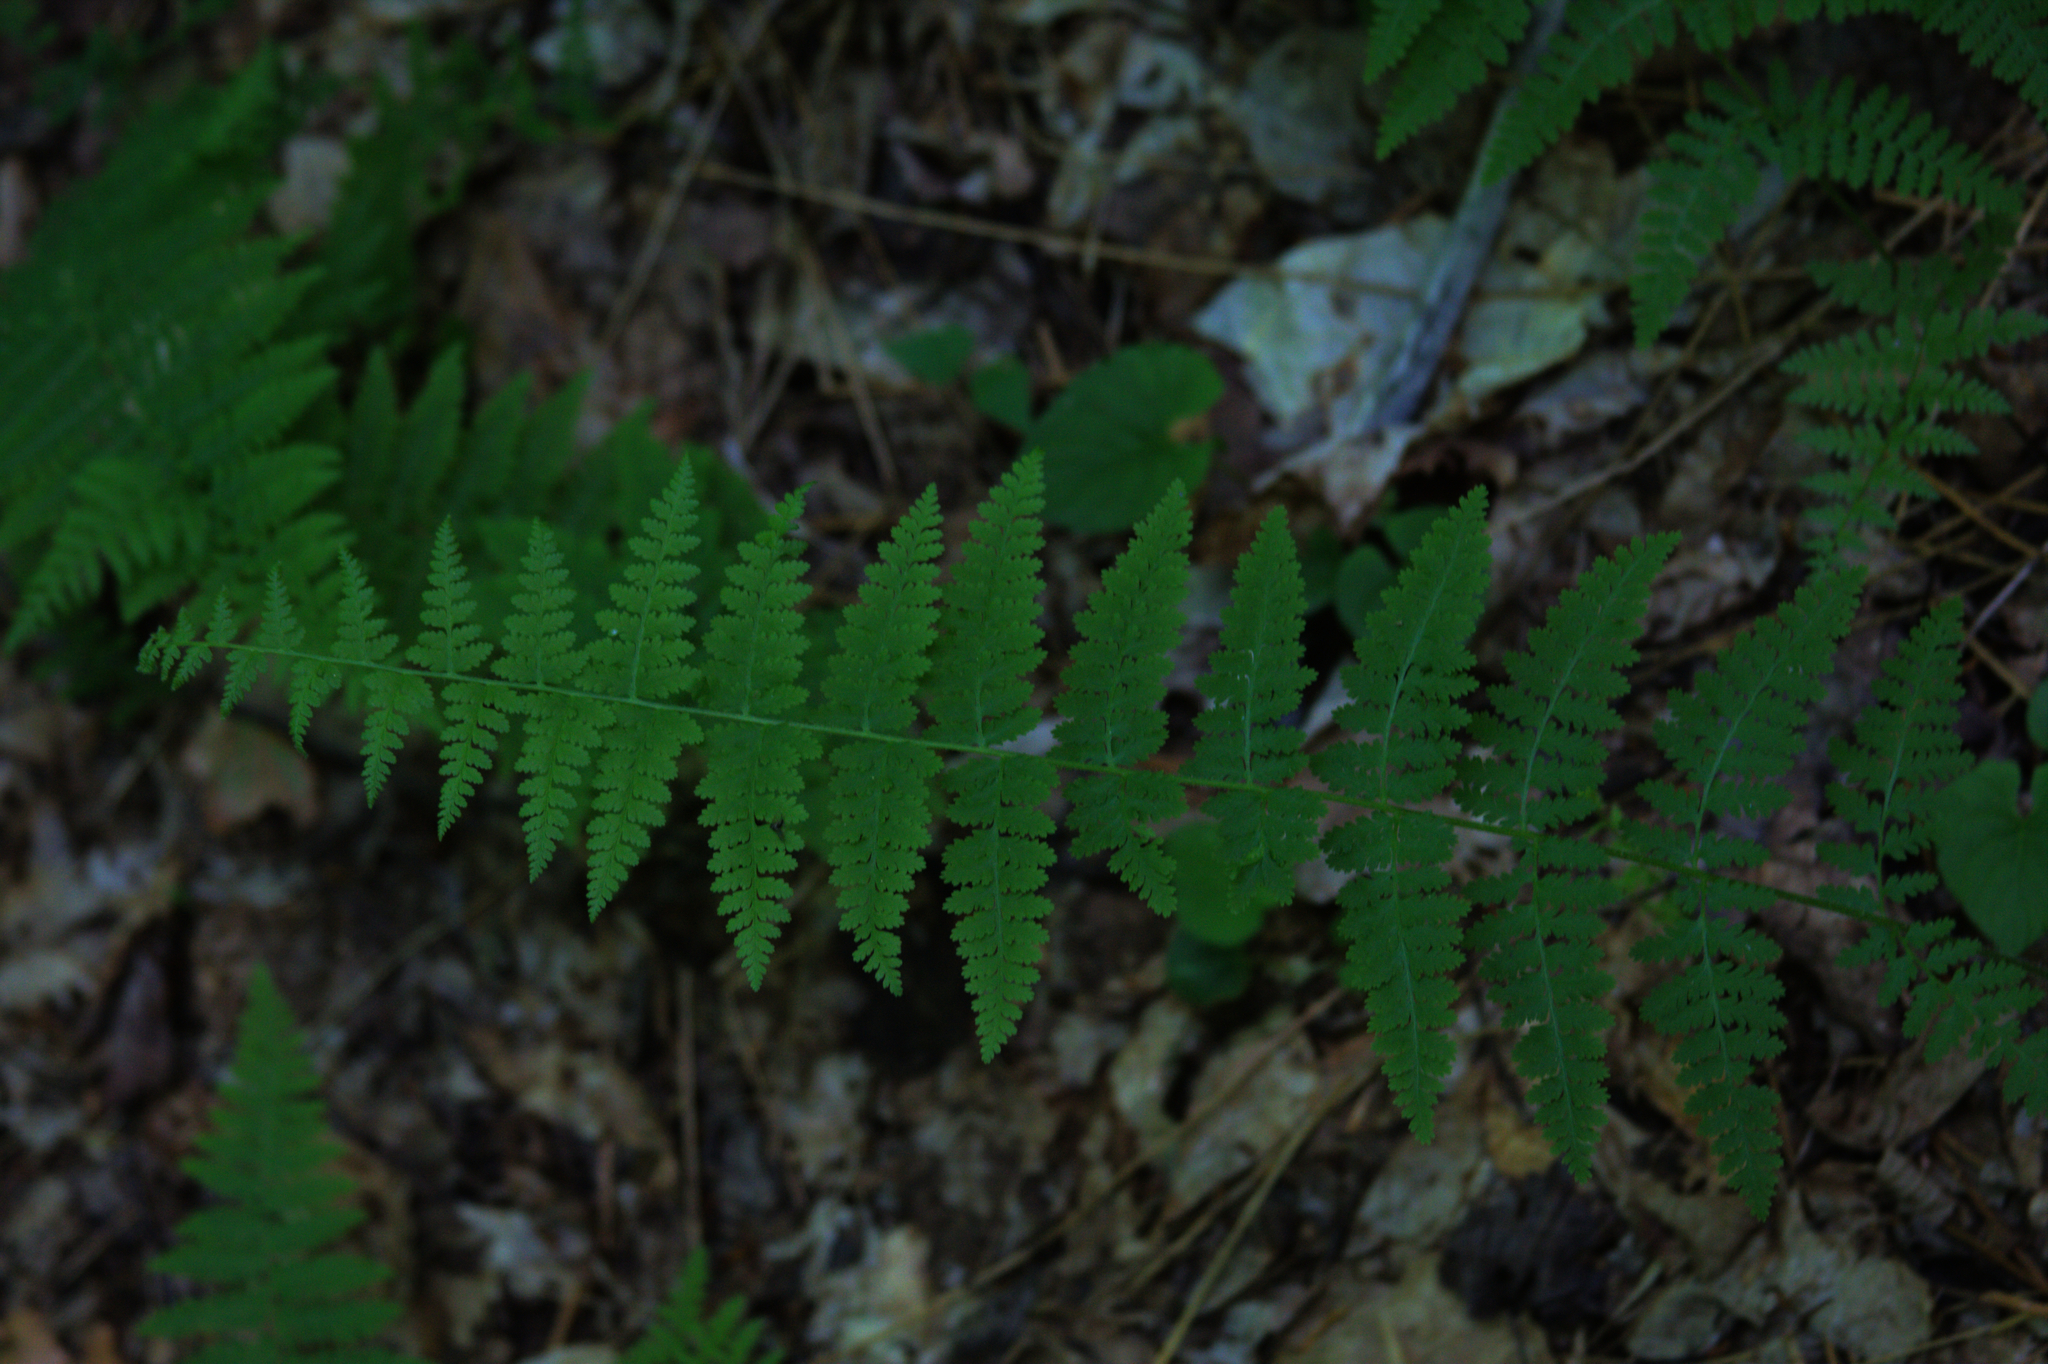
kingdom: Plantae
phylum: Tracheophyta
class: Polypodiopsida
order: Polypodiales
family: Dennstaedtiaceae
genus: Sitobolium
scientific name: Sitobolium punctilobum
